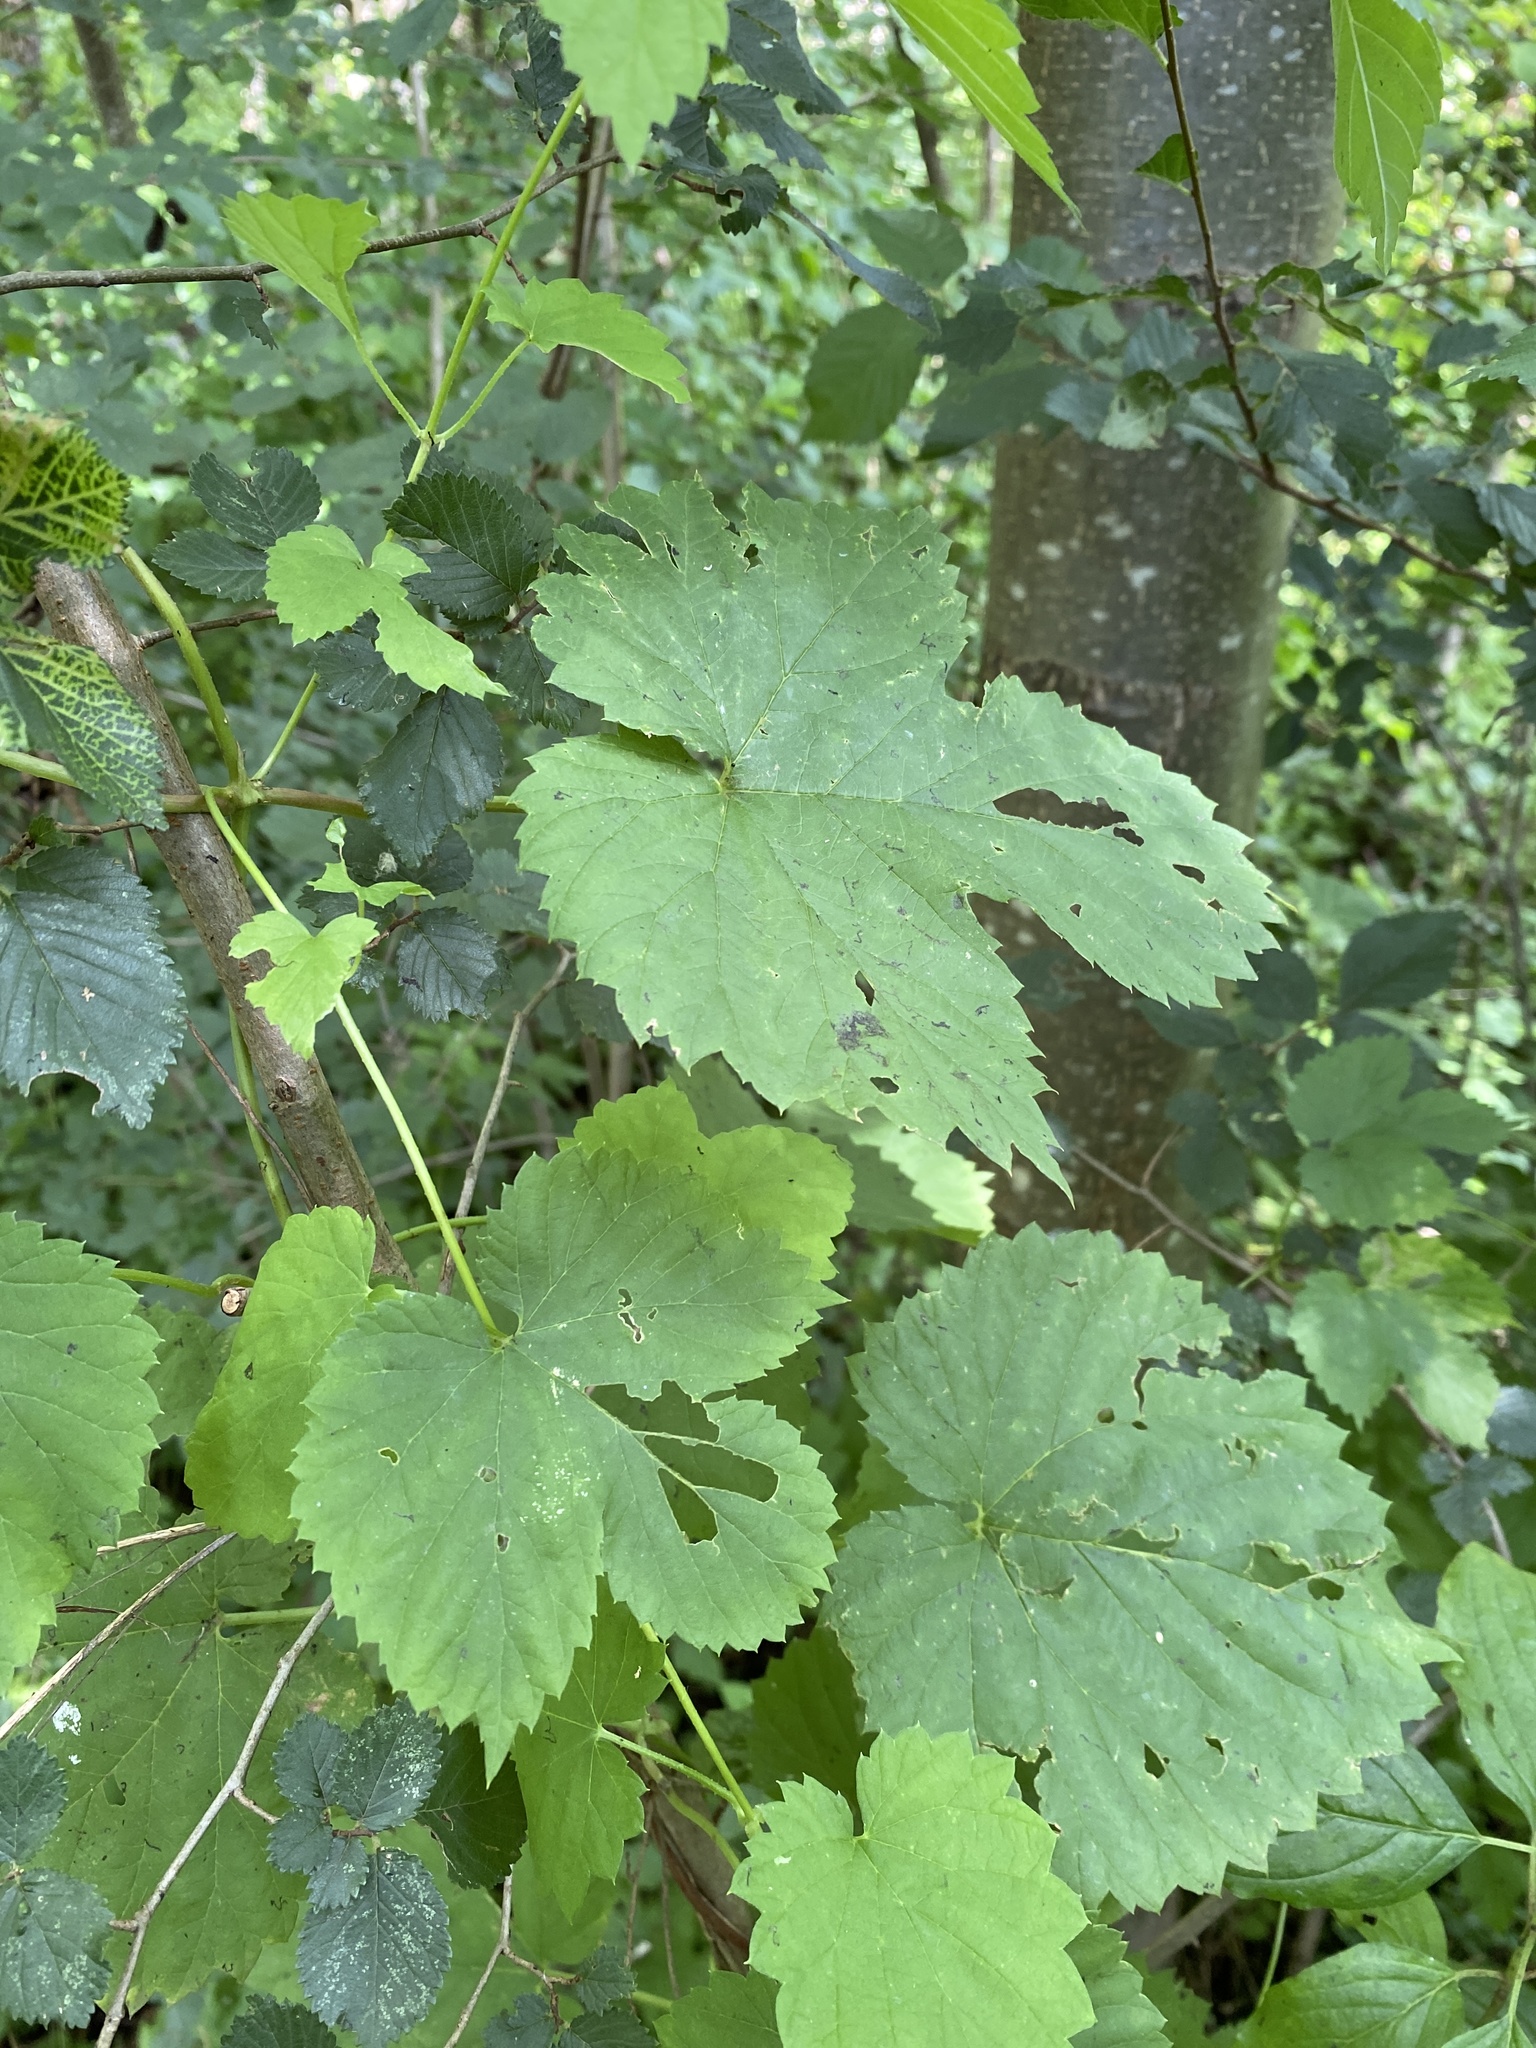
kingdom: Plantae
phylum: Tracheophyta
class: Magnoliopsida
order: Rosales
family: Cannabaceae
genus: Humulus
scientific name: Humulus lupulus
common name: Hop
